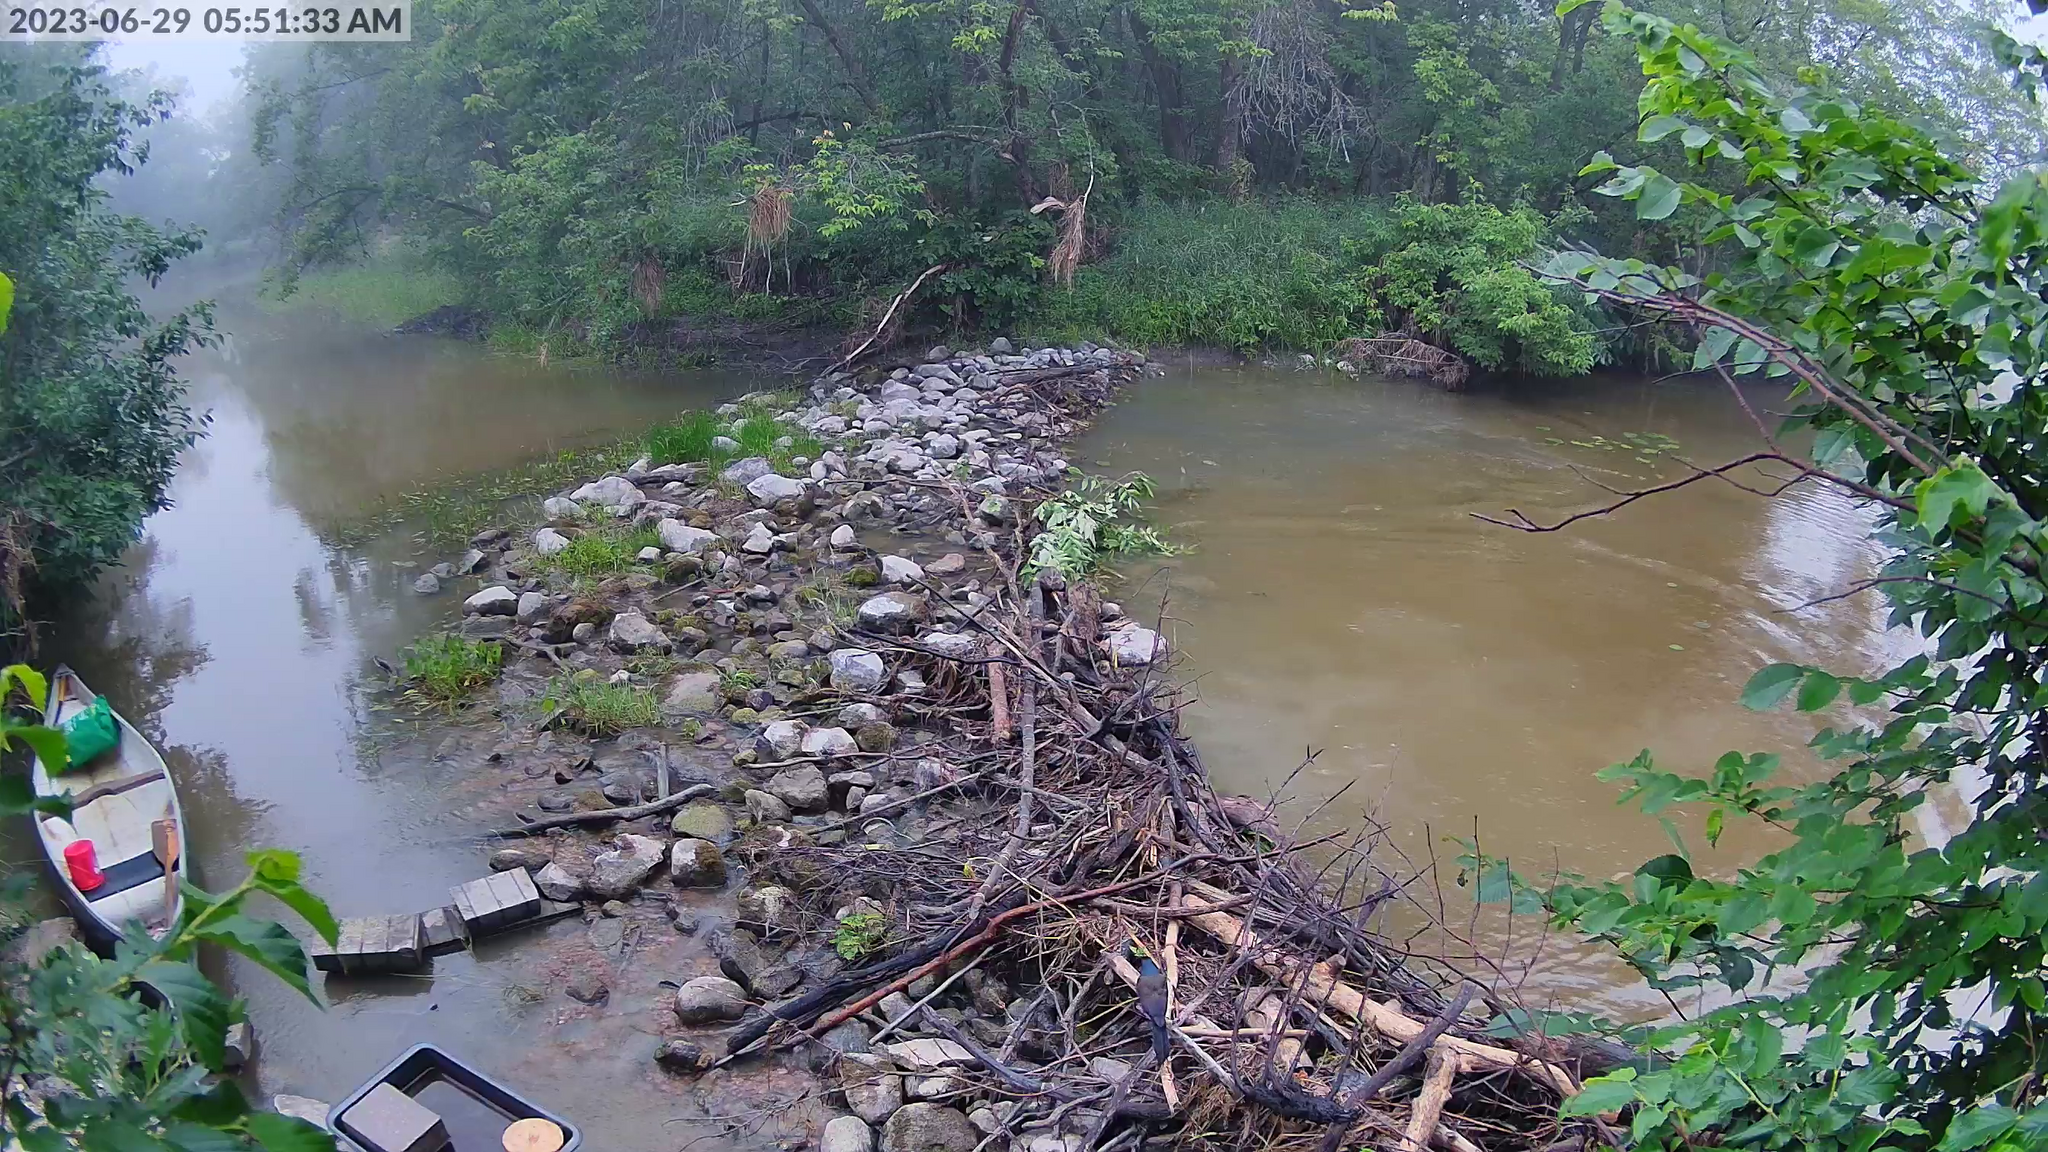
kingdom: Animalia
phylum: Chordata
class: Aves
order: Passeriformes
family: Icteridae
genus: Quiscalus
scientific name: Quiscalus quiscula
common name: Common grackle
